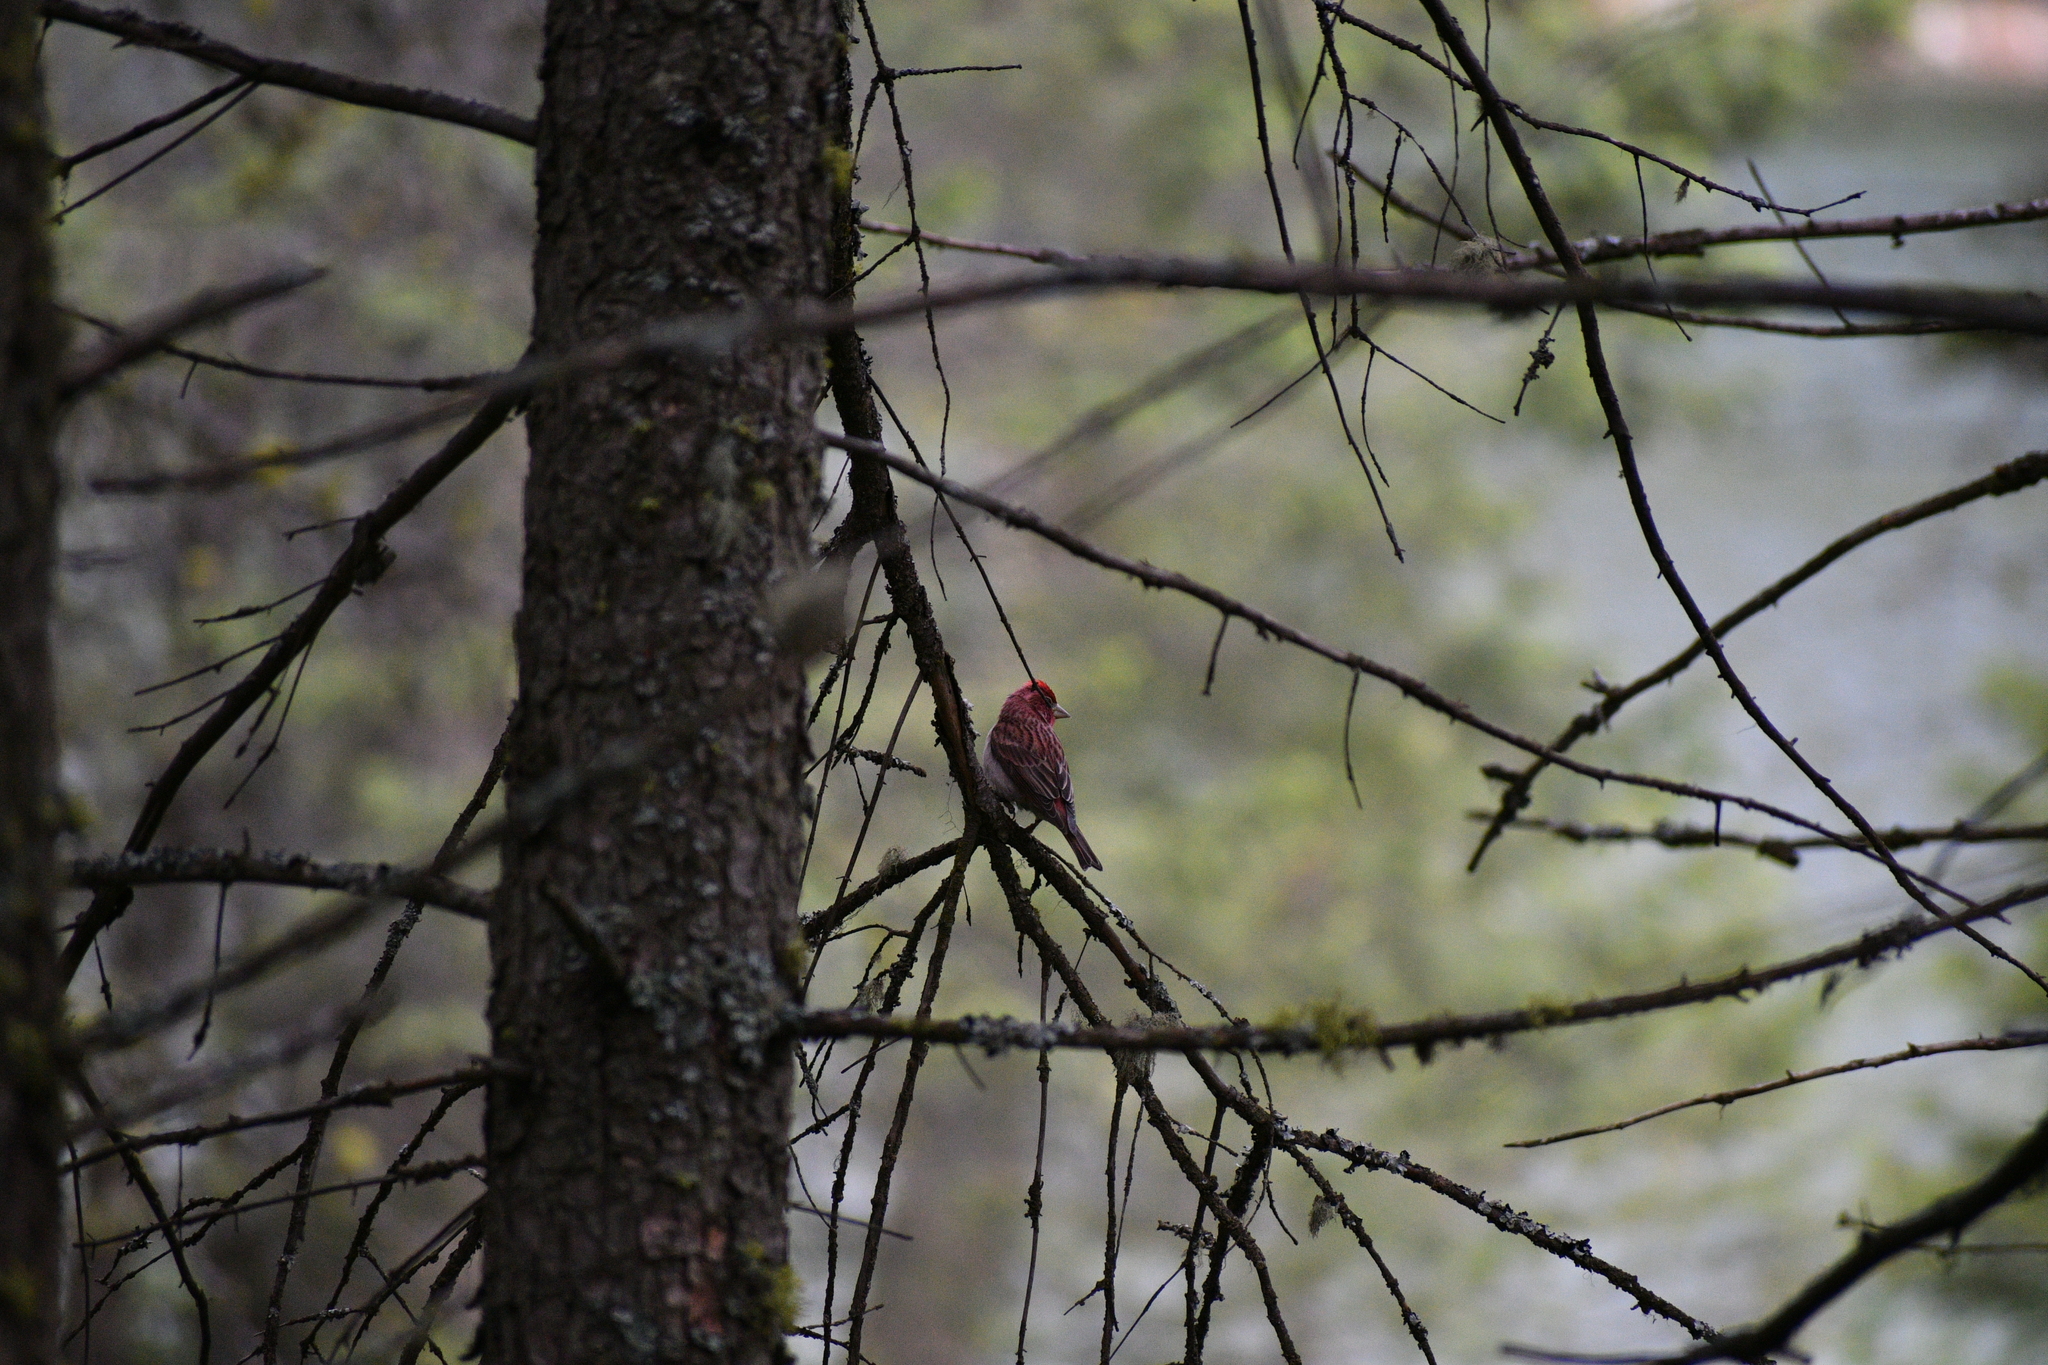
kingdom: Animalia
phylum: Chordata
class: Aves
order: Passeriformes
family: Fringillidae
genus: Haemorhous
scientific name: Haemorhous cassinii
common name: Cassin's finch
